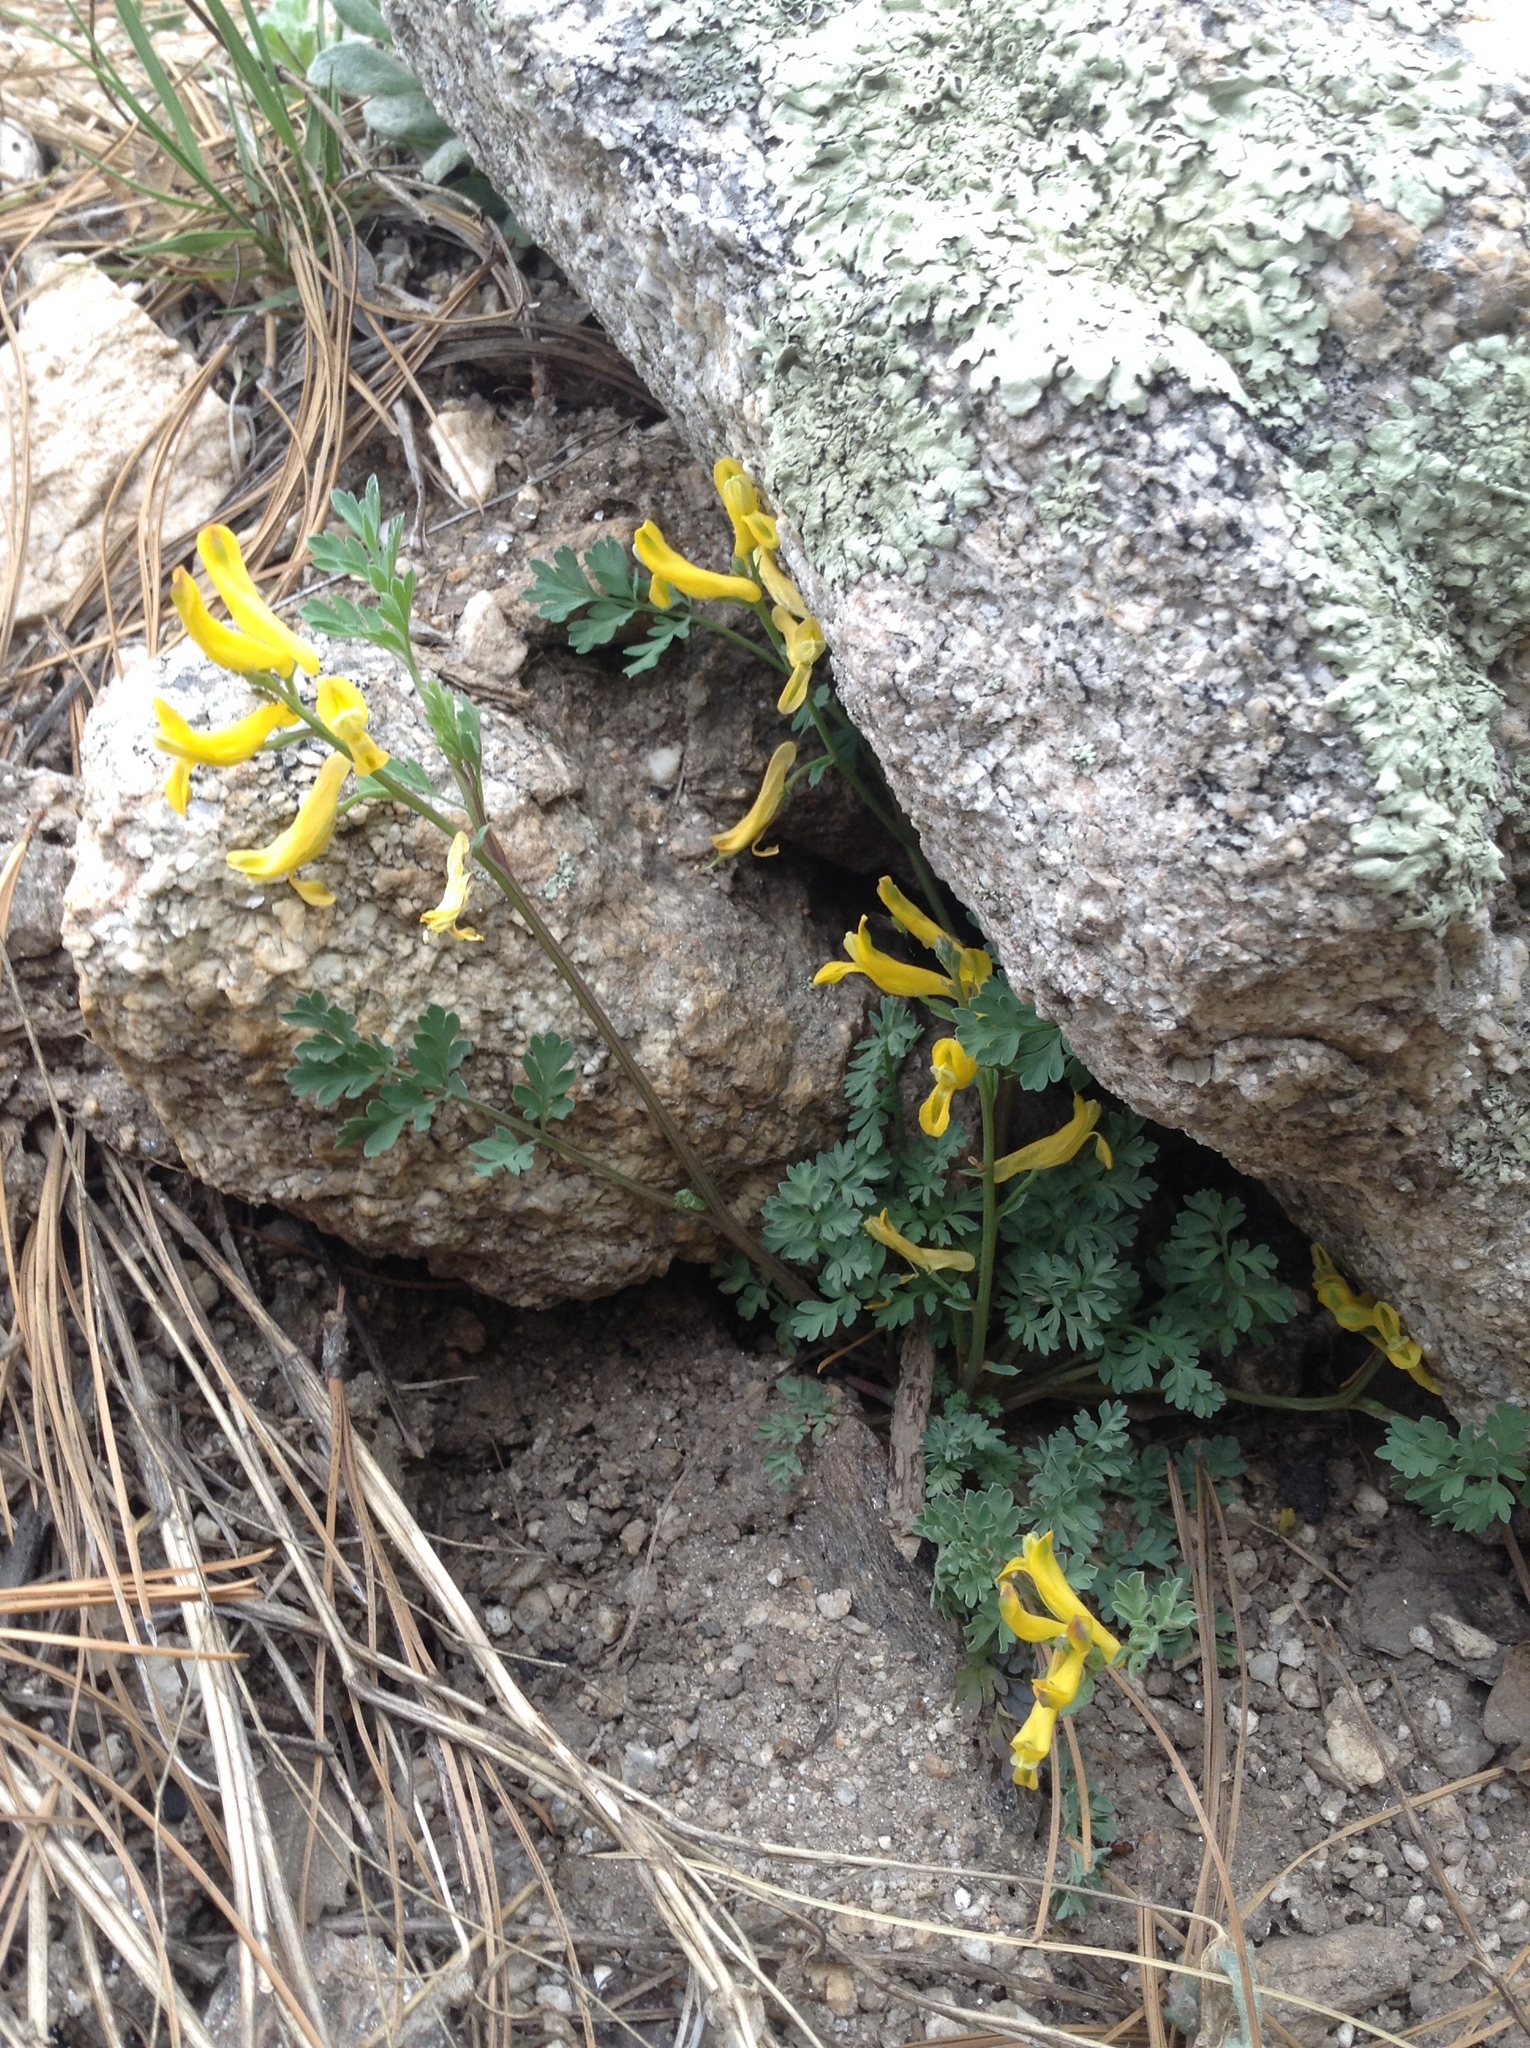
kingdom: Plantae
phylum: Tracheophyta
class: Magnoliopsida
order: Ranunculales
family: Papaveraceae
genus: Corydalis
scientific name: Corydalis aurea
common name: Golden corydalis
